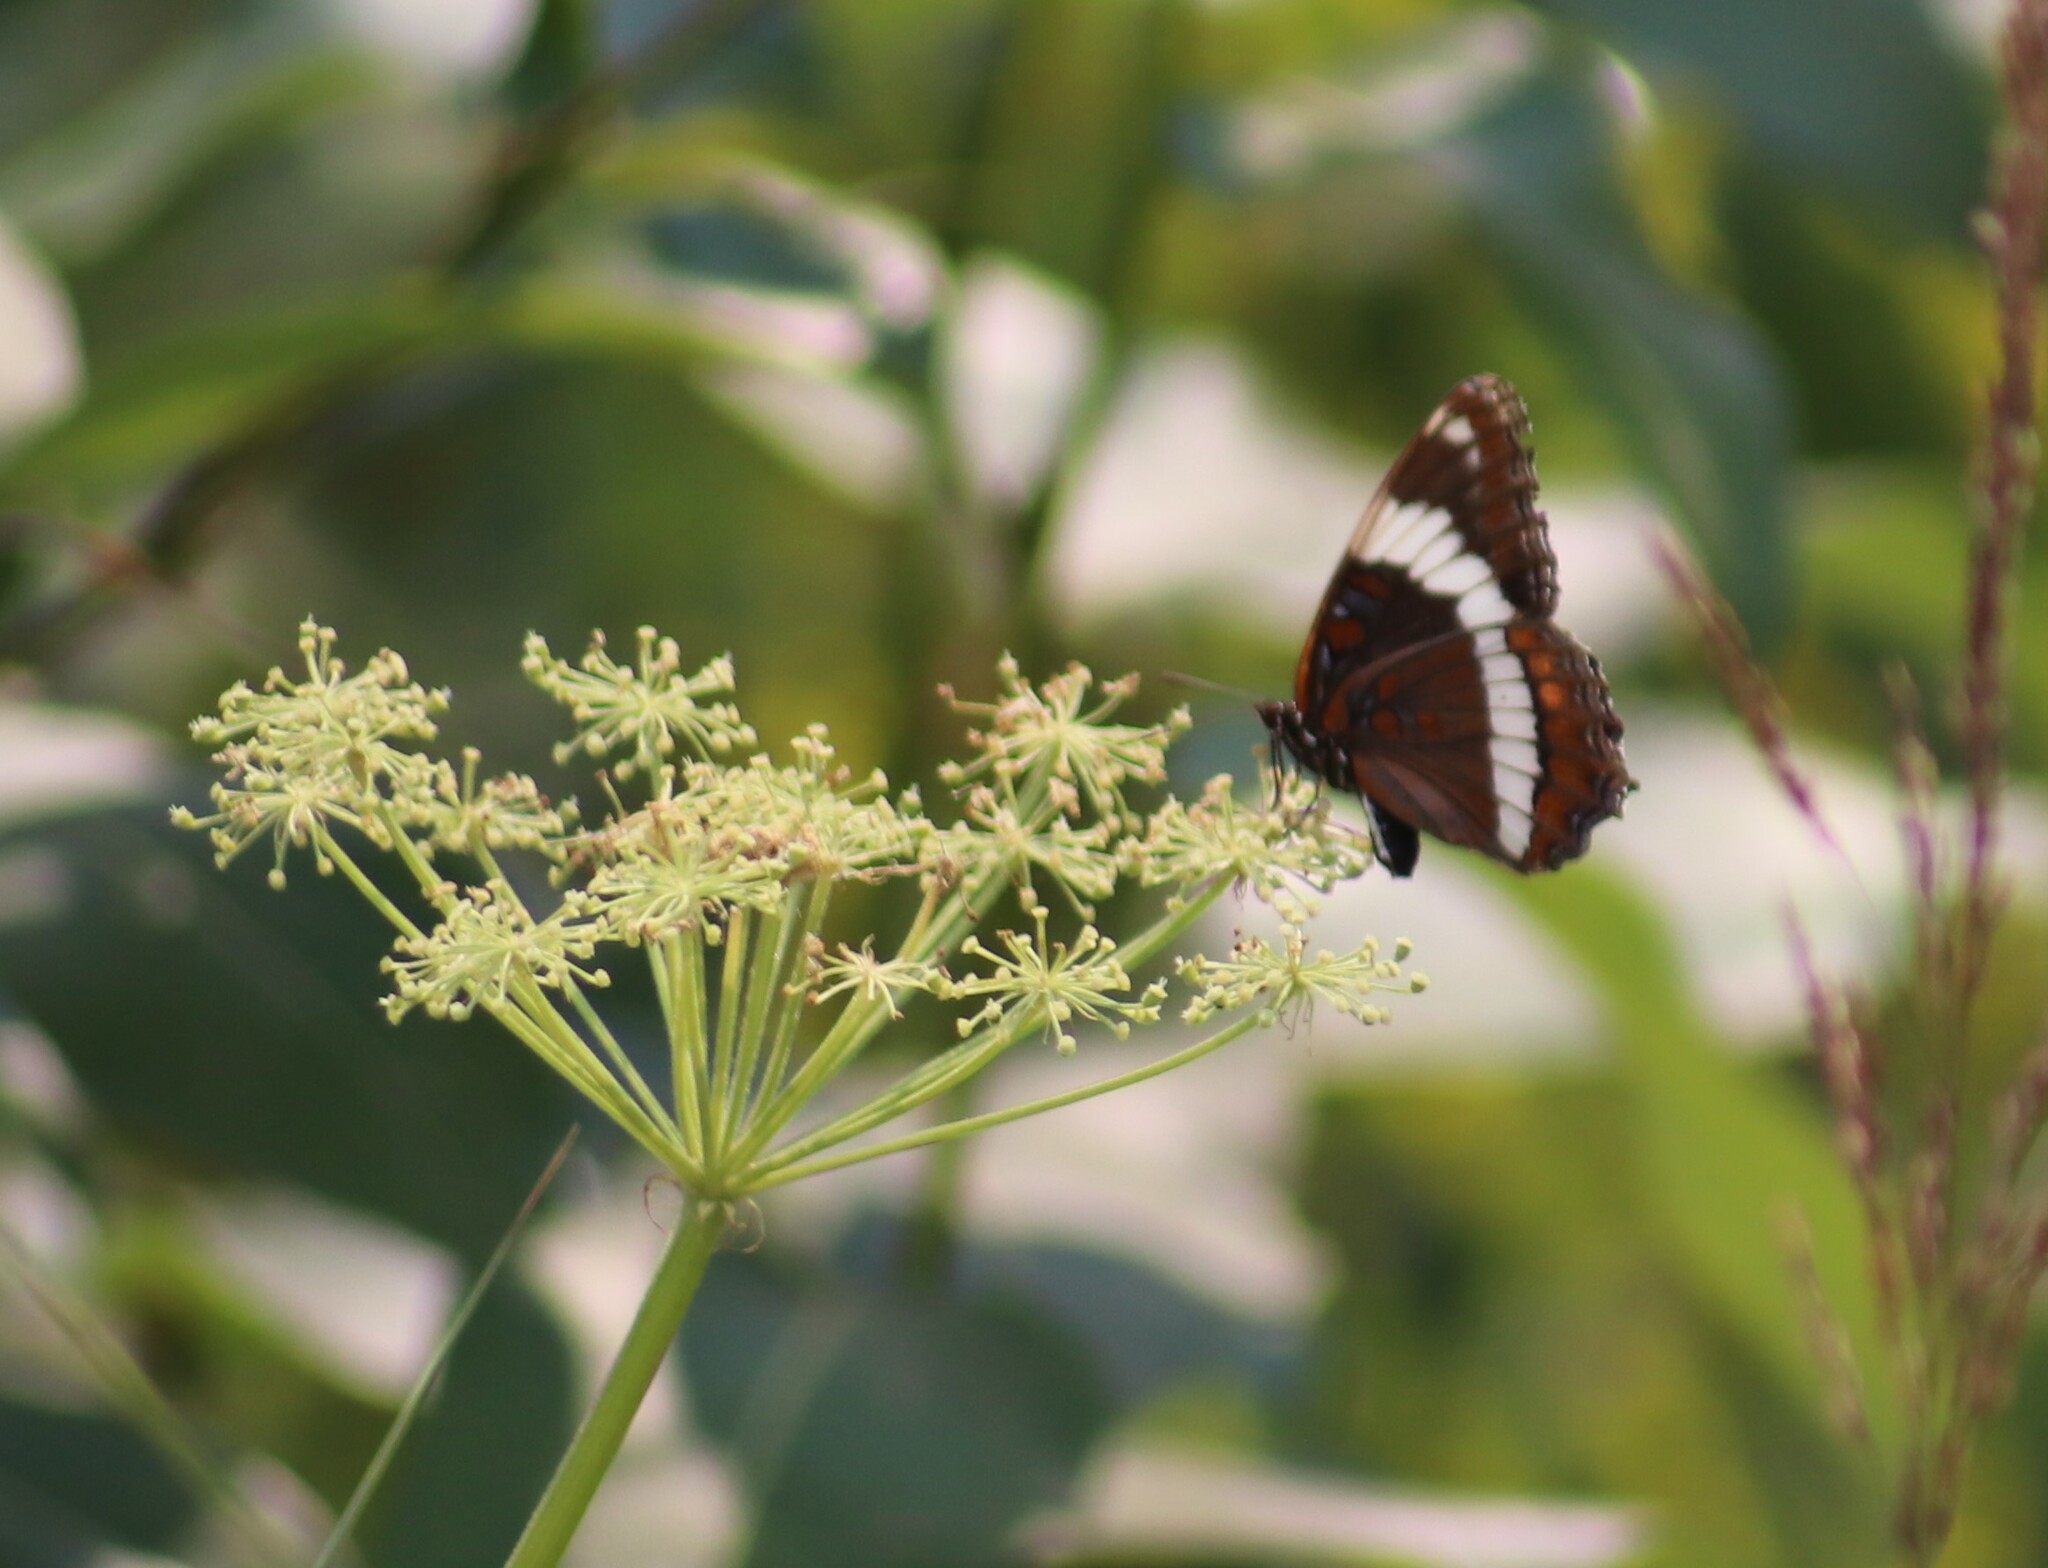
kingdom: Animalia
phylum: Arthropoda
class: Insecta
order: Lepidoptera
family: Nymphalidae
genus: Limenitis
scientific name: Limenitis arthemis
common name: Red-spotted admiral
